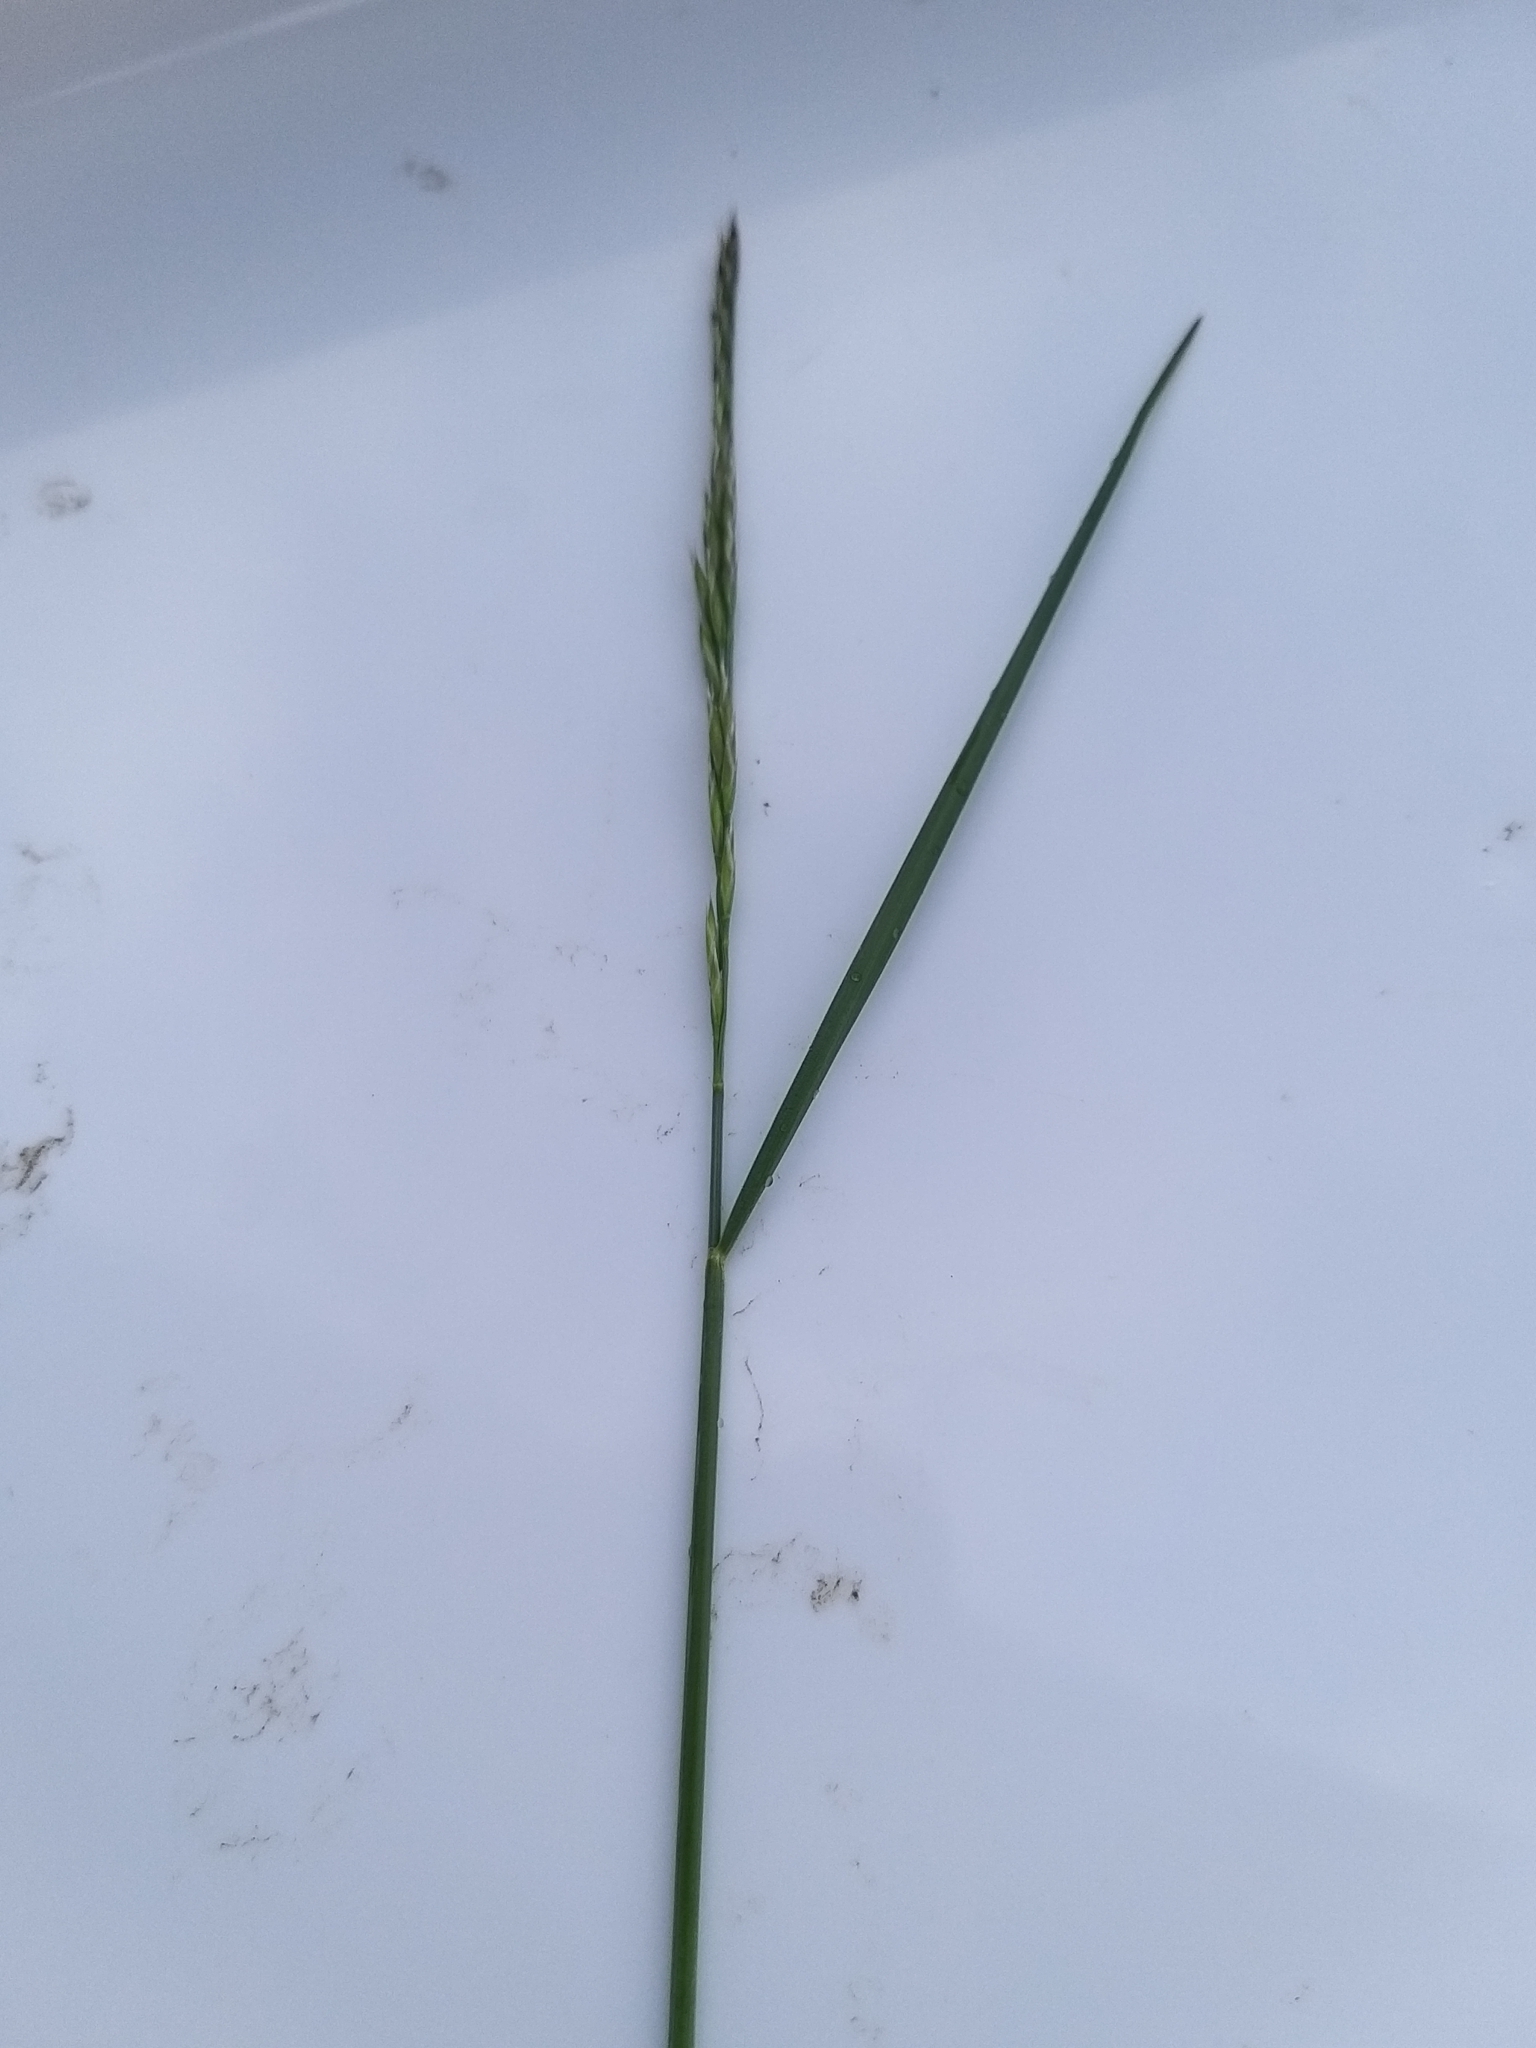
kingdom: Plantae
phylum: Tracheophyta
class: Liliopsida
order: Poales
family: Poaceae
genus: Festuca
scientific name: Festuca rubra
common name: Red fescue
